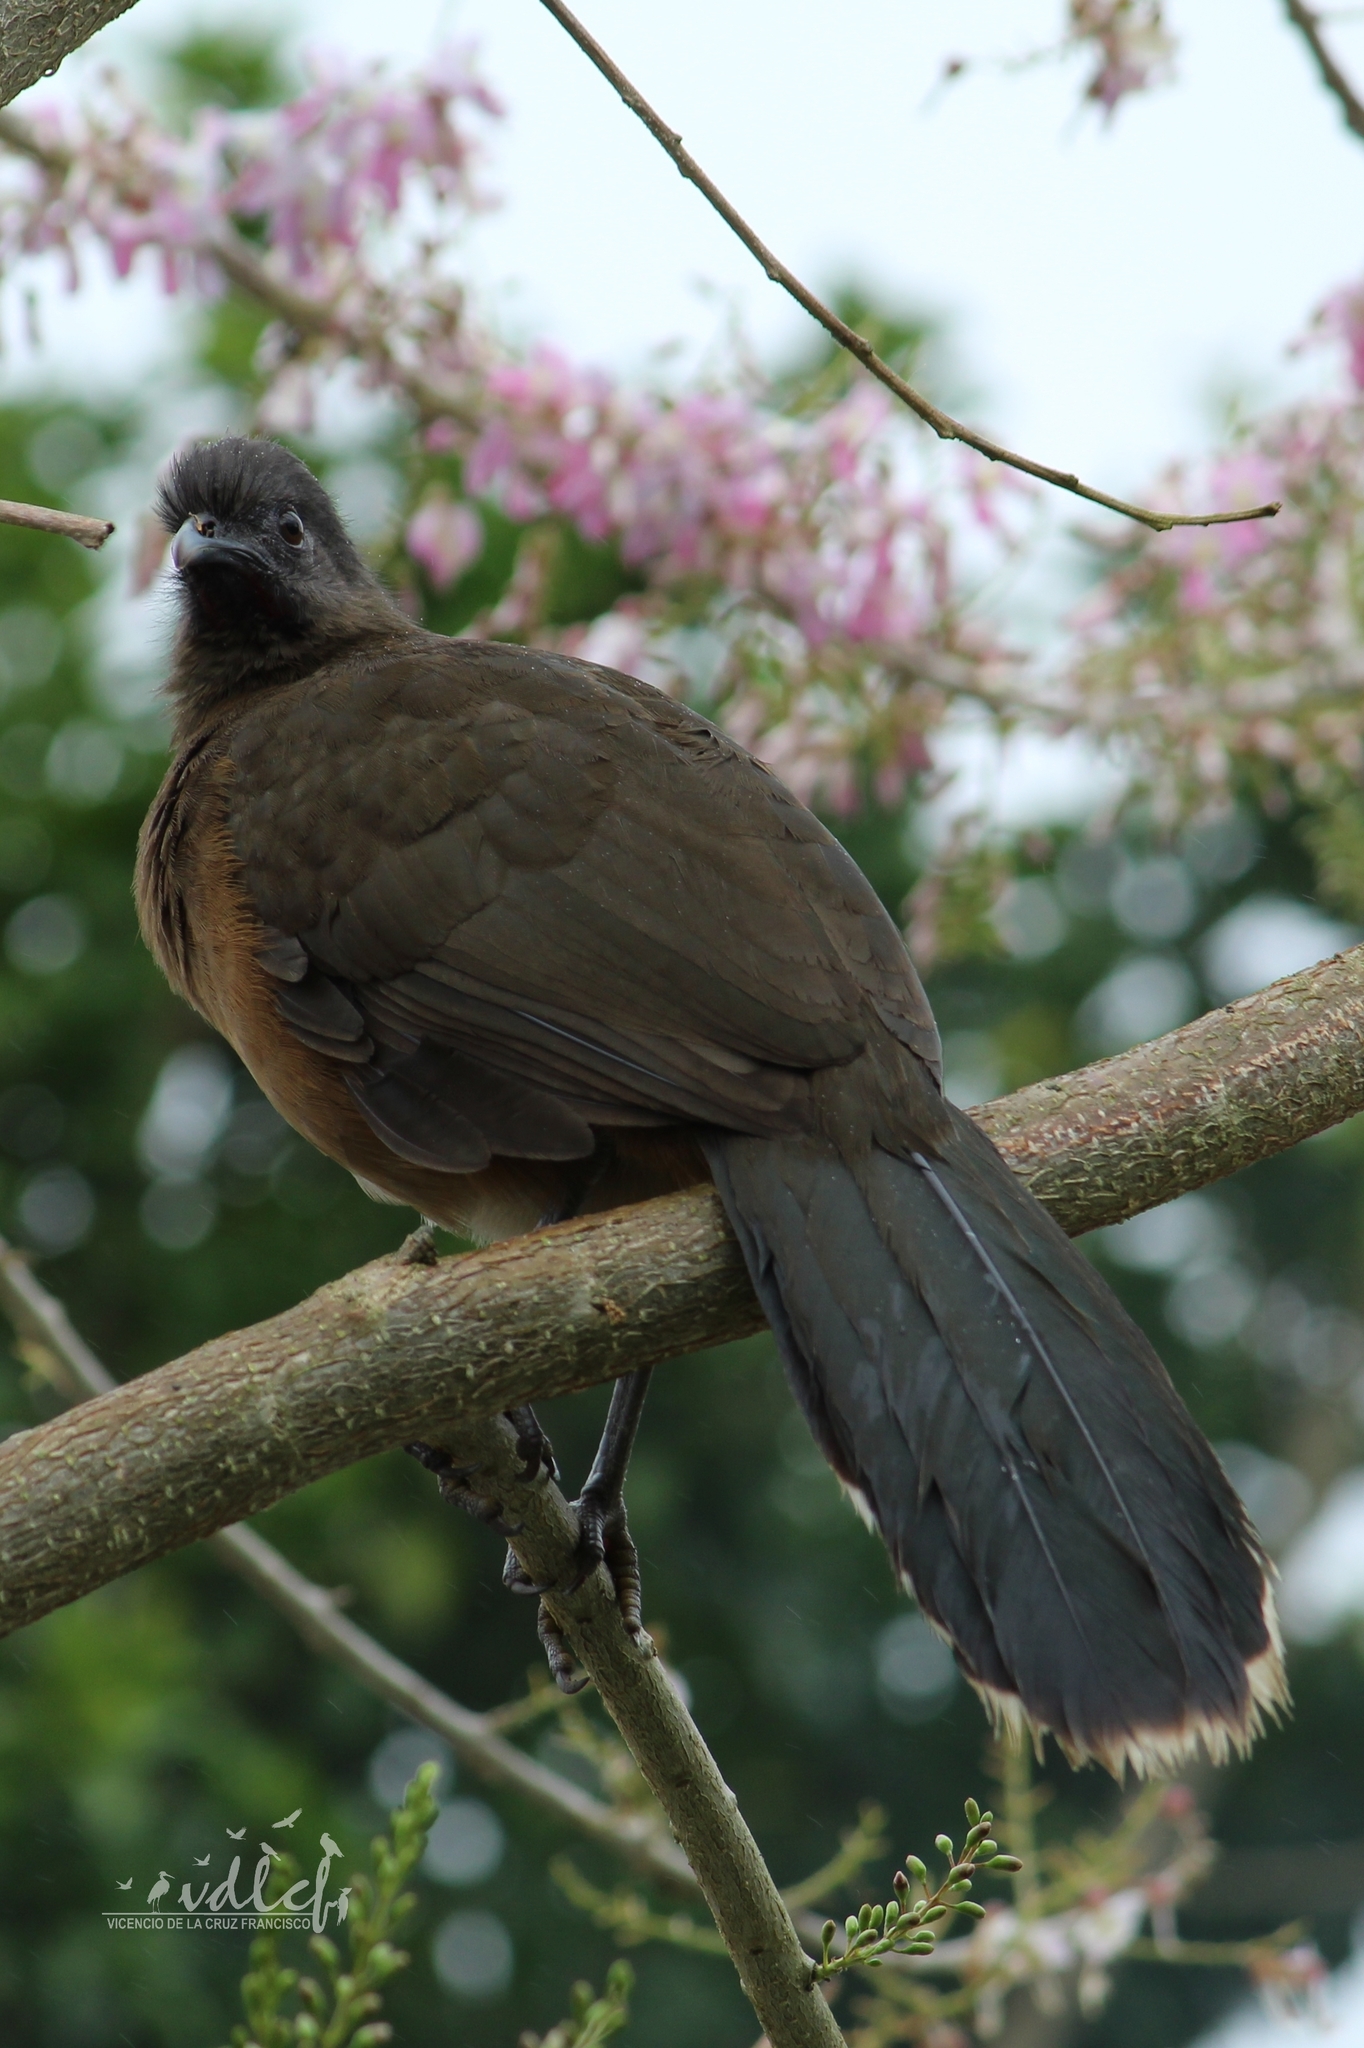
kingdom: Animalia
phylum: Chordata
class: Aves
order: Galliformes
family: Cracidae
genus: Ortalis
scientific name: Ortalis vetula
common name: Plain chachalaca
